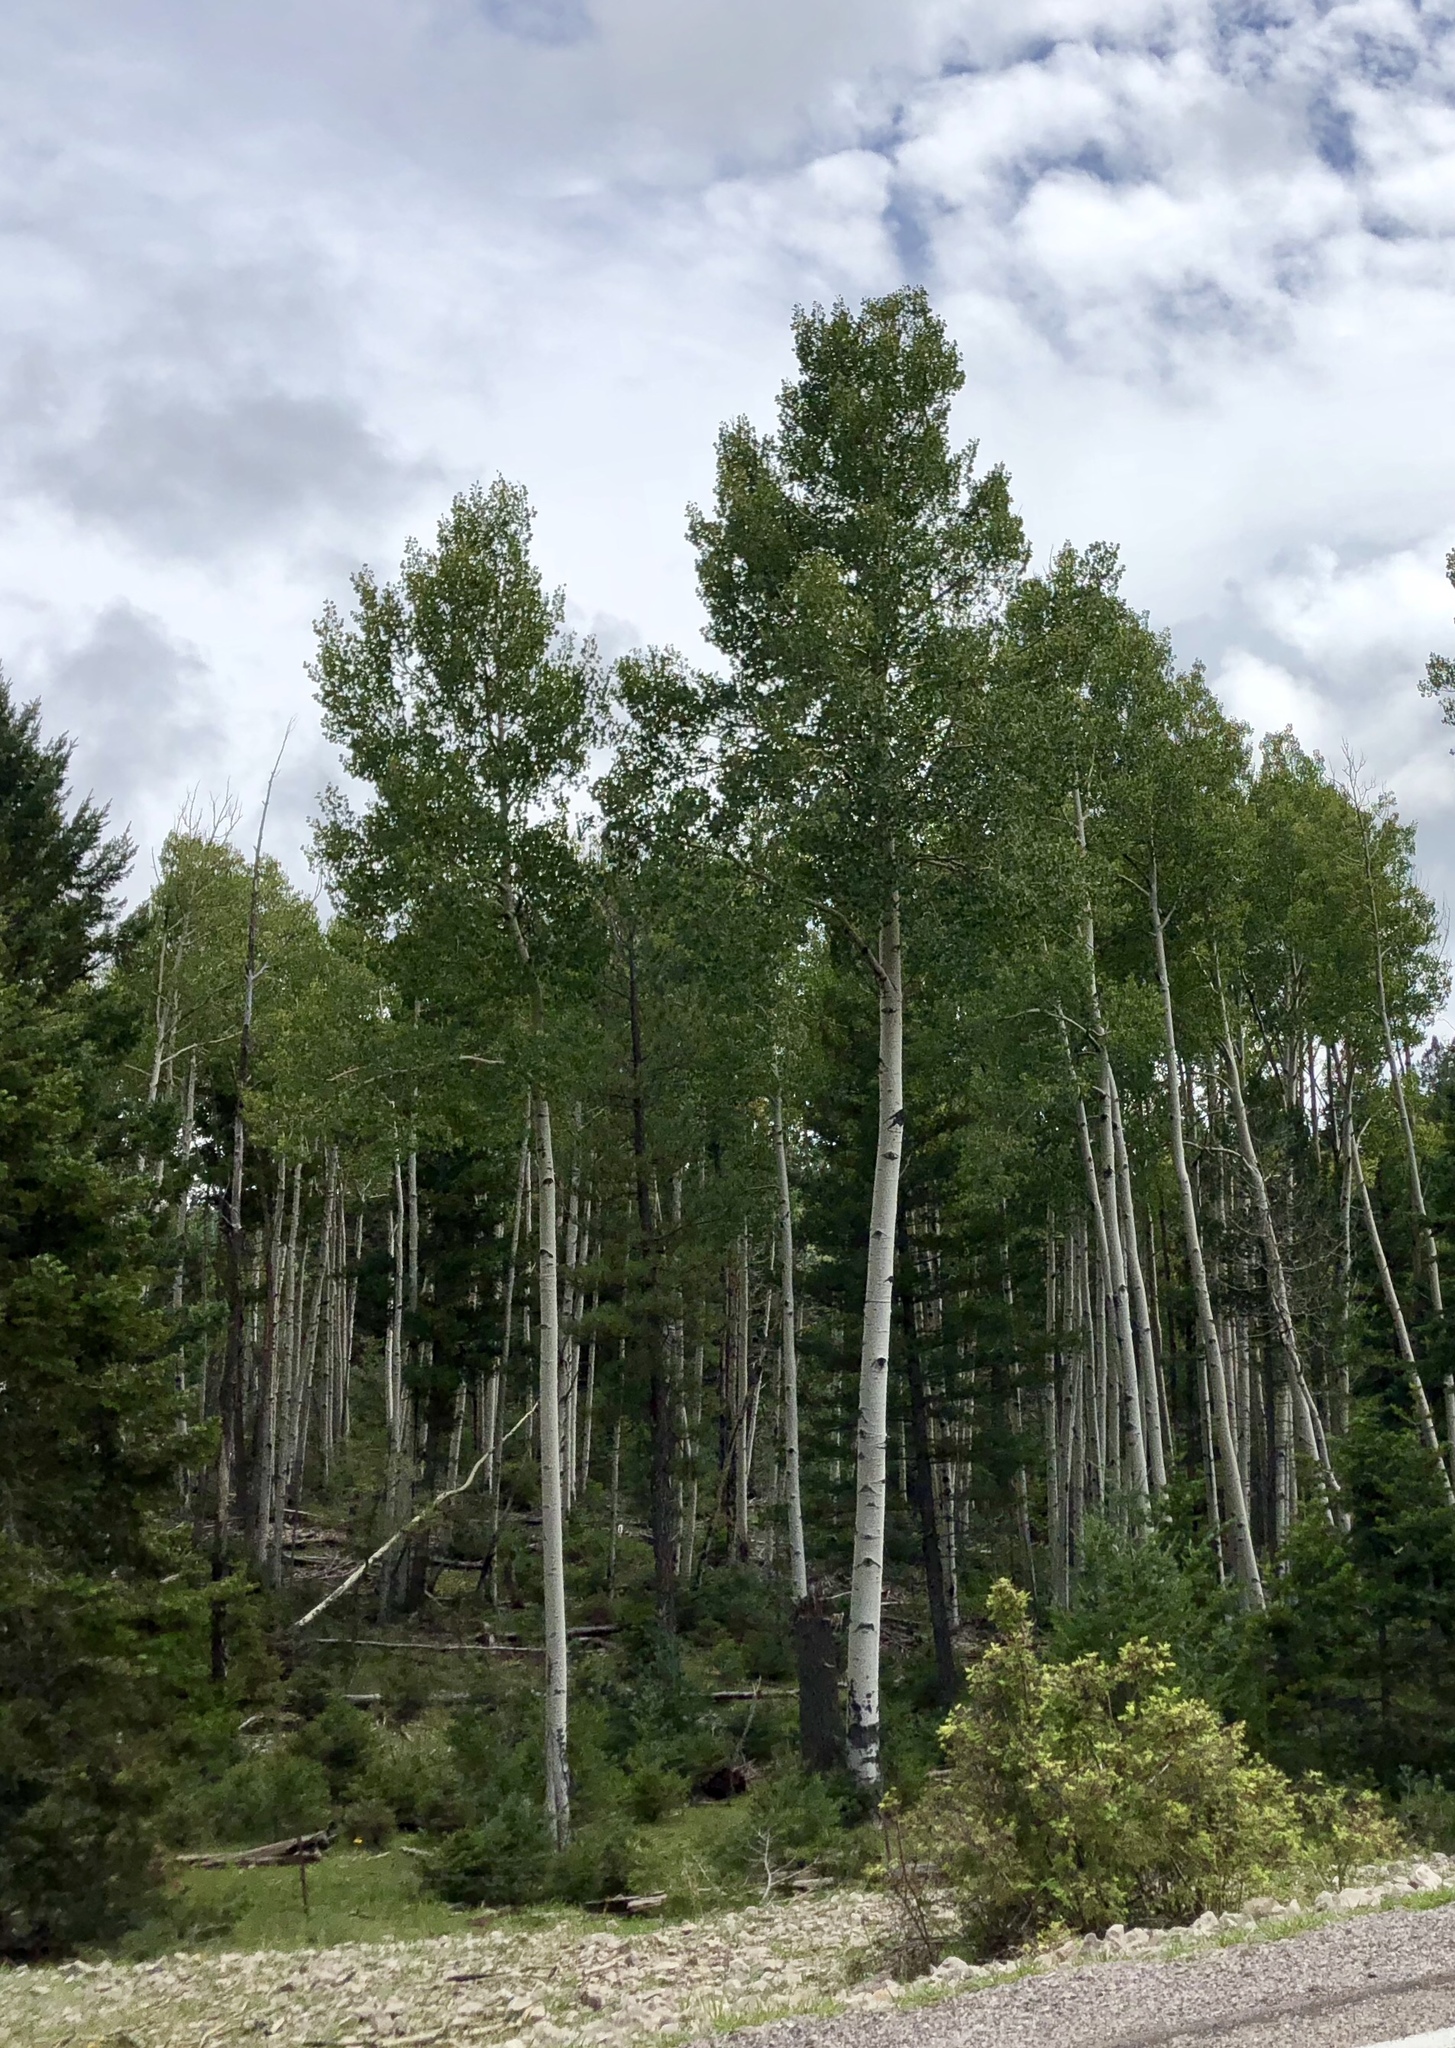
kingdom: Plantae
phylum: Tracheophyta
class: Magnoliopsida
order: Malpighiales
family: Salicaceae
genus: Populus
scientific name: Populus tremuloides
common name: Quaking aspen
